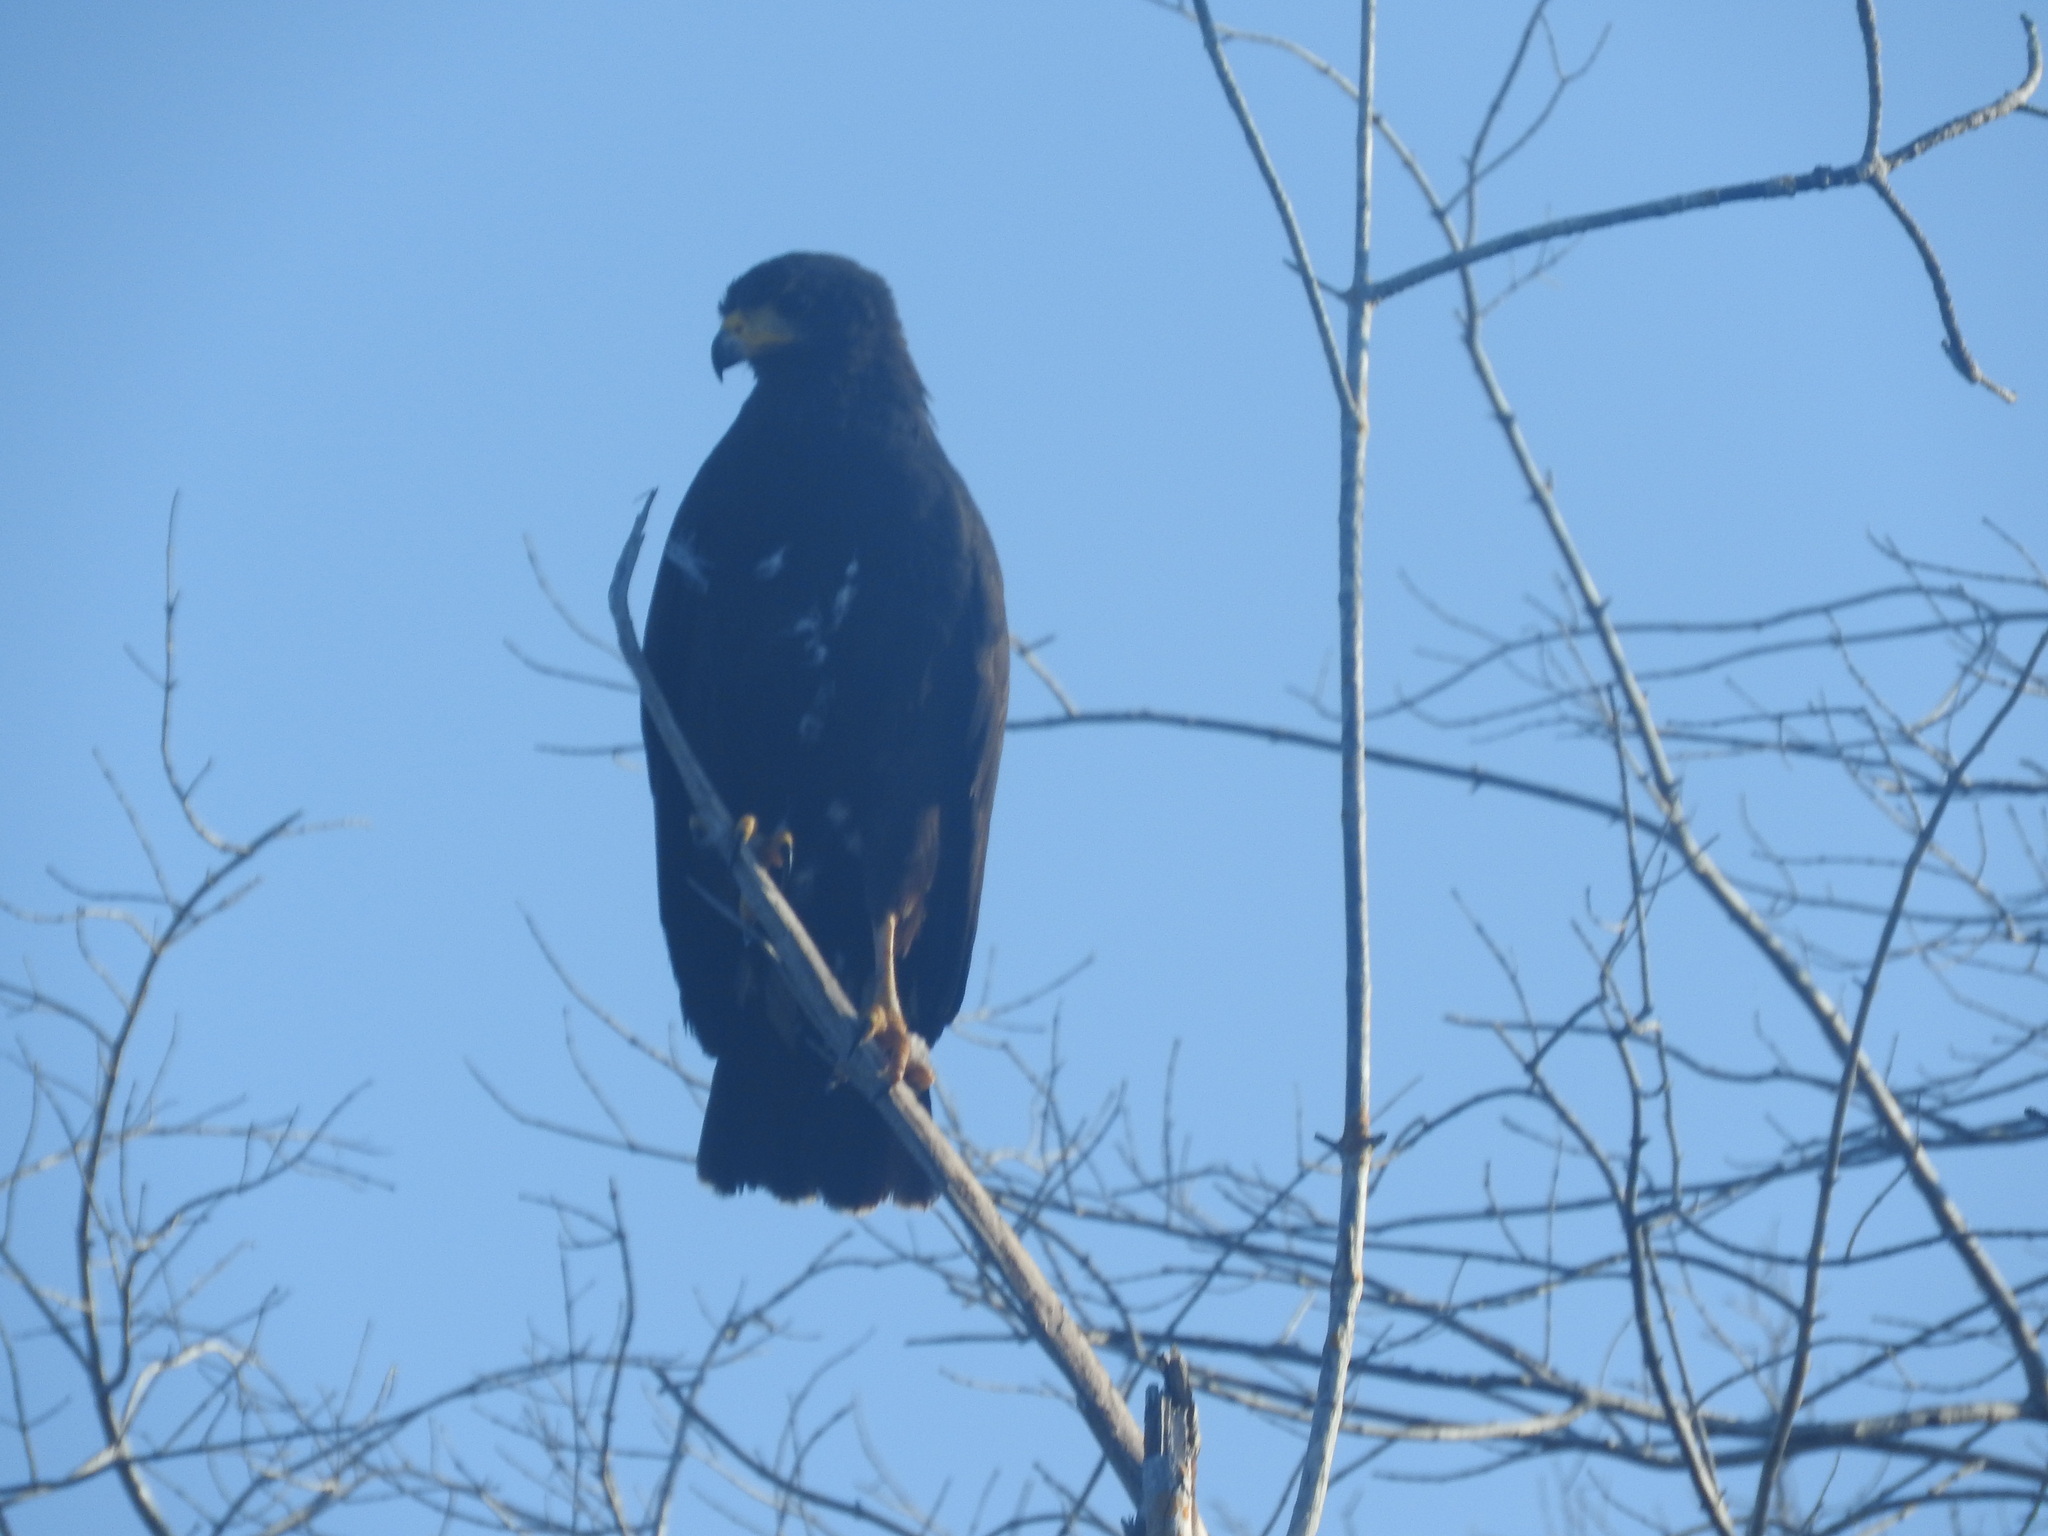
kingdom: Animalia
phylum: Chordata
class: Aves
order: Accipitriformes
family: Accipitridae
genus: Buteogallus
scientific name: Buteogallus anthracinus
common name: Common black hawk
